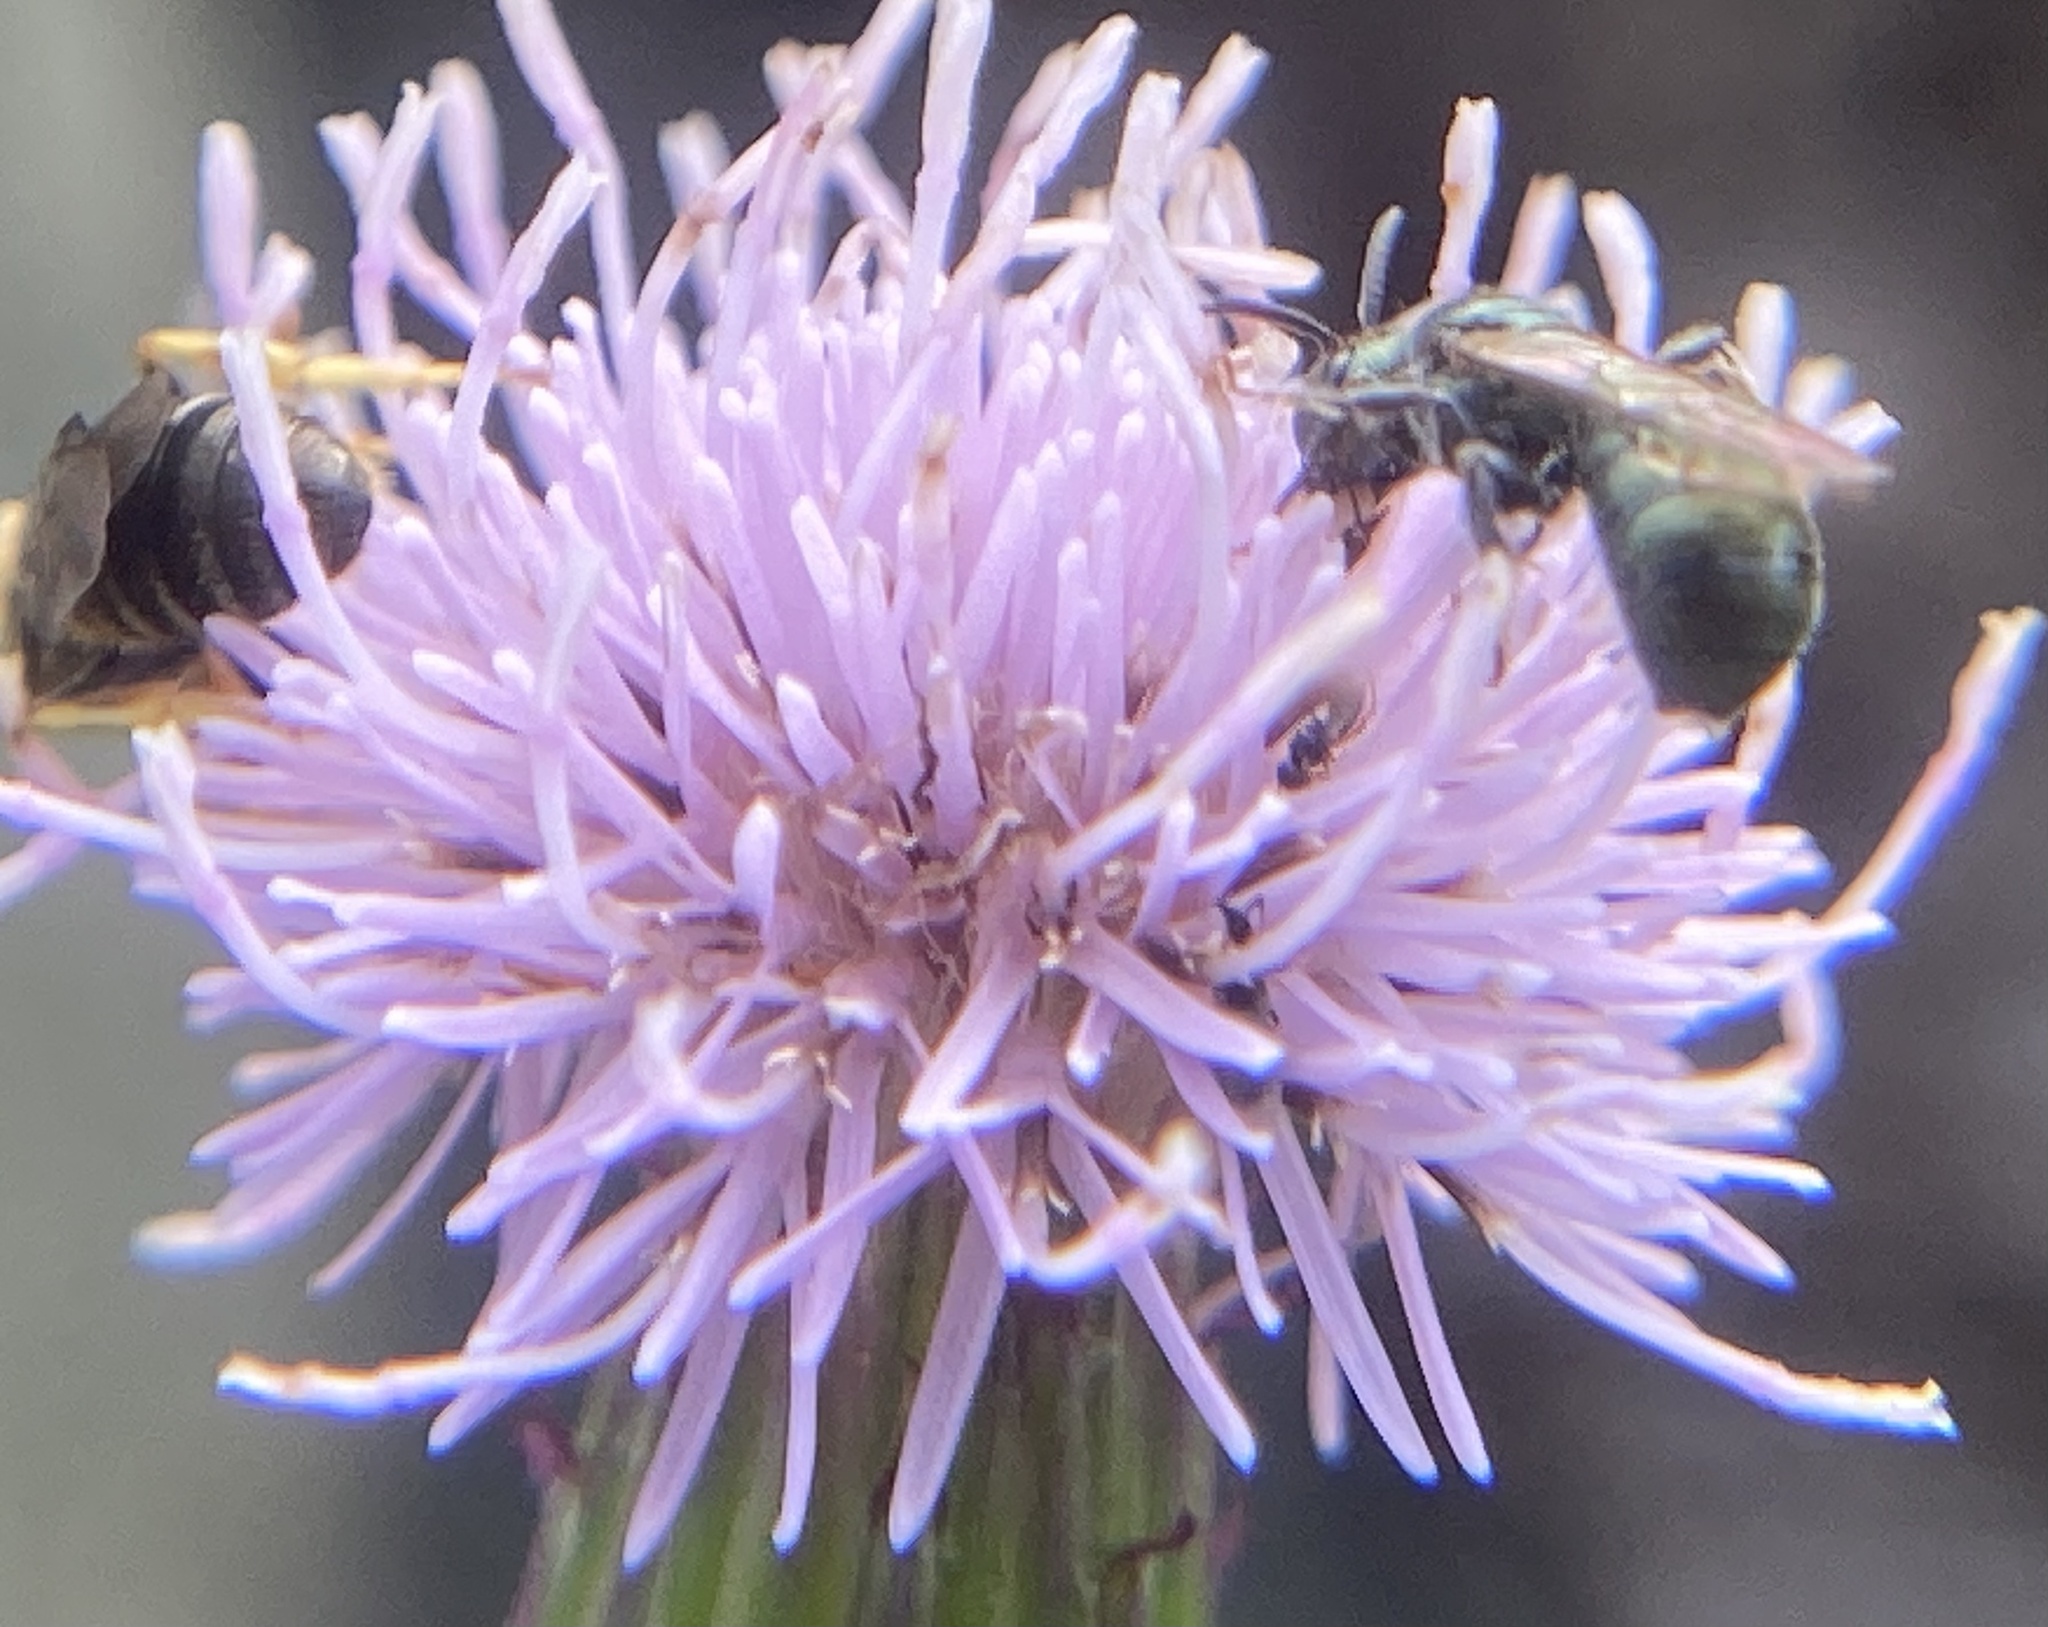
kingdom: Plantae
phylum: Tracheophyta
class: Magnoliopsida
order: Asterales
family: Asteraceae
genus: Cirsium
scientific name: Cirsium arvense
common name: Creeping thistle
